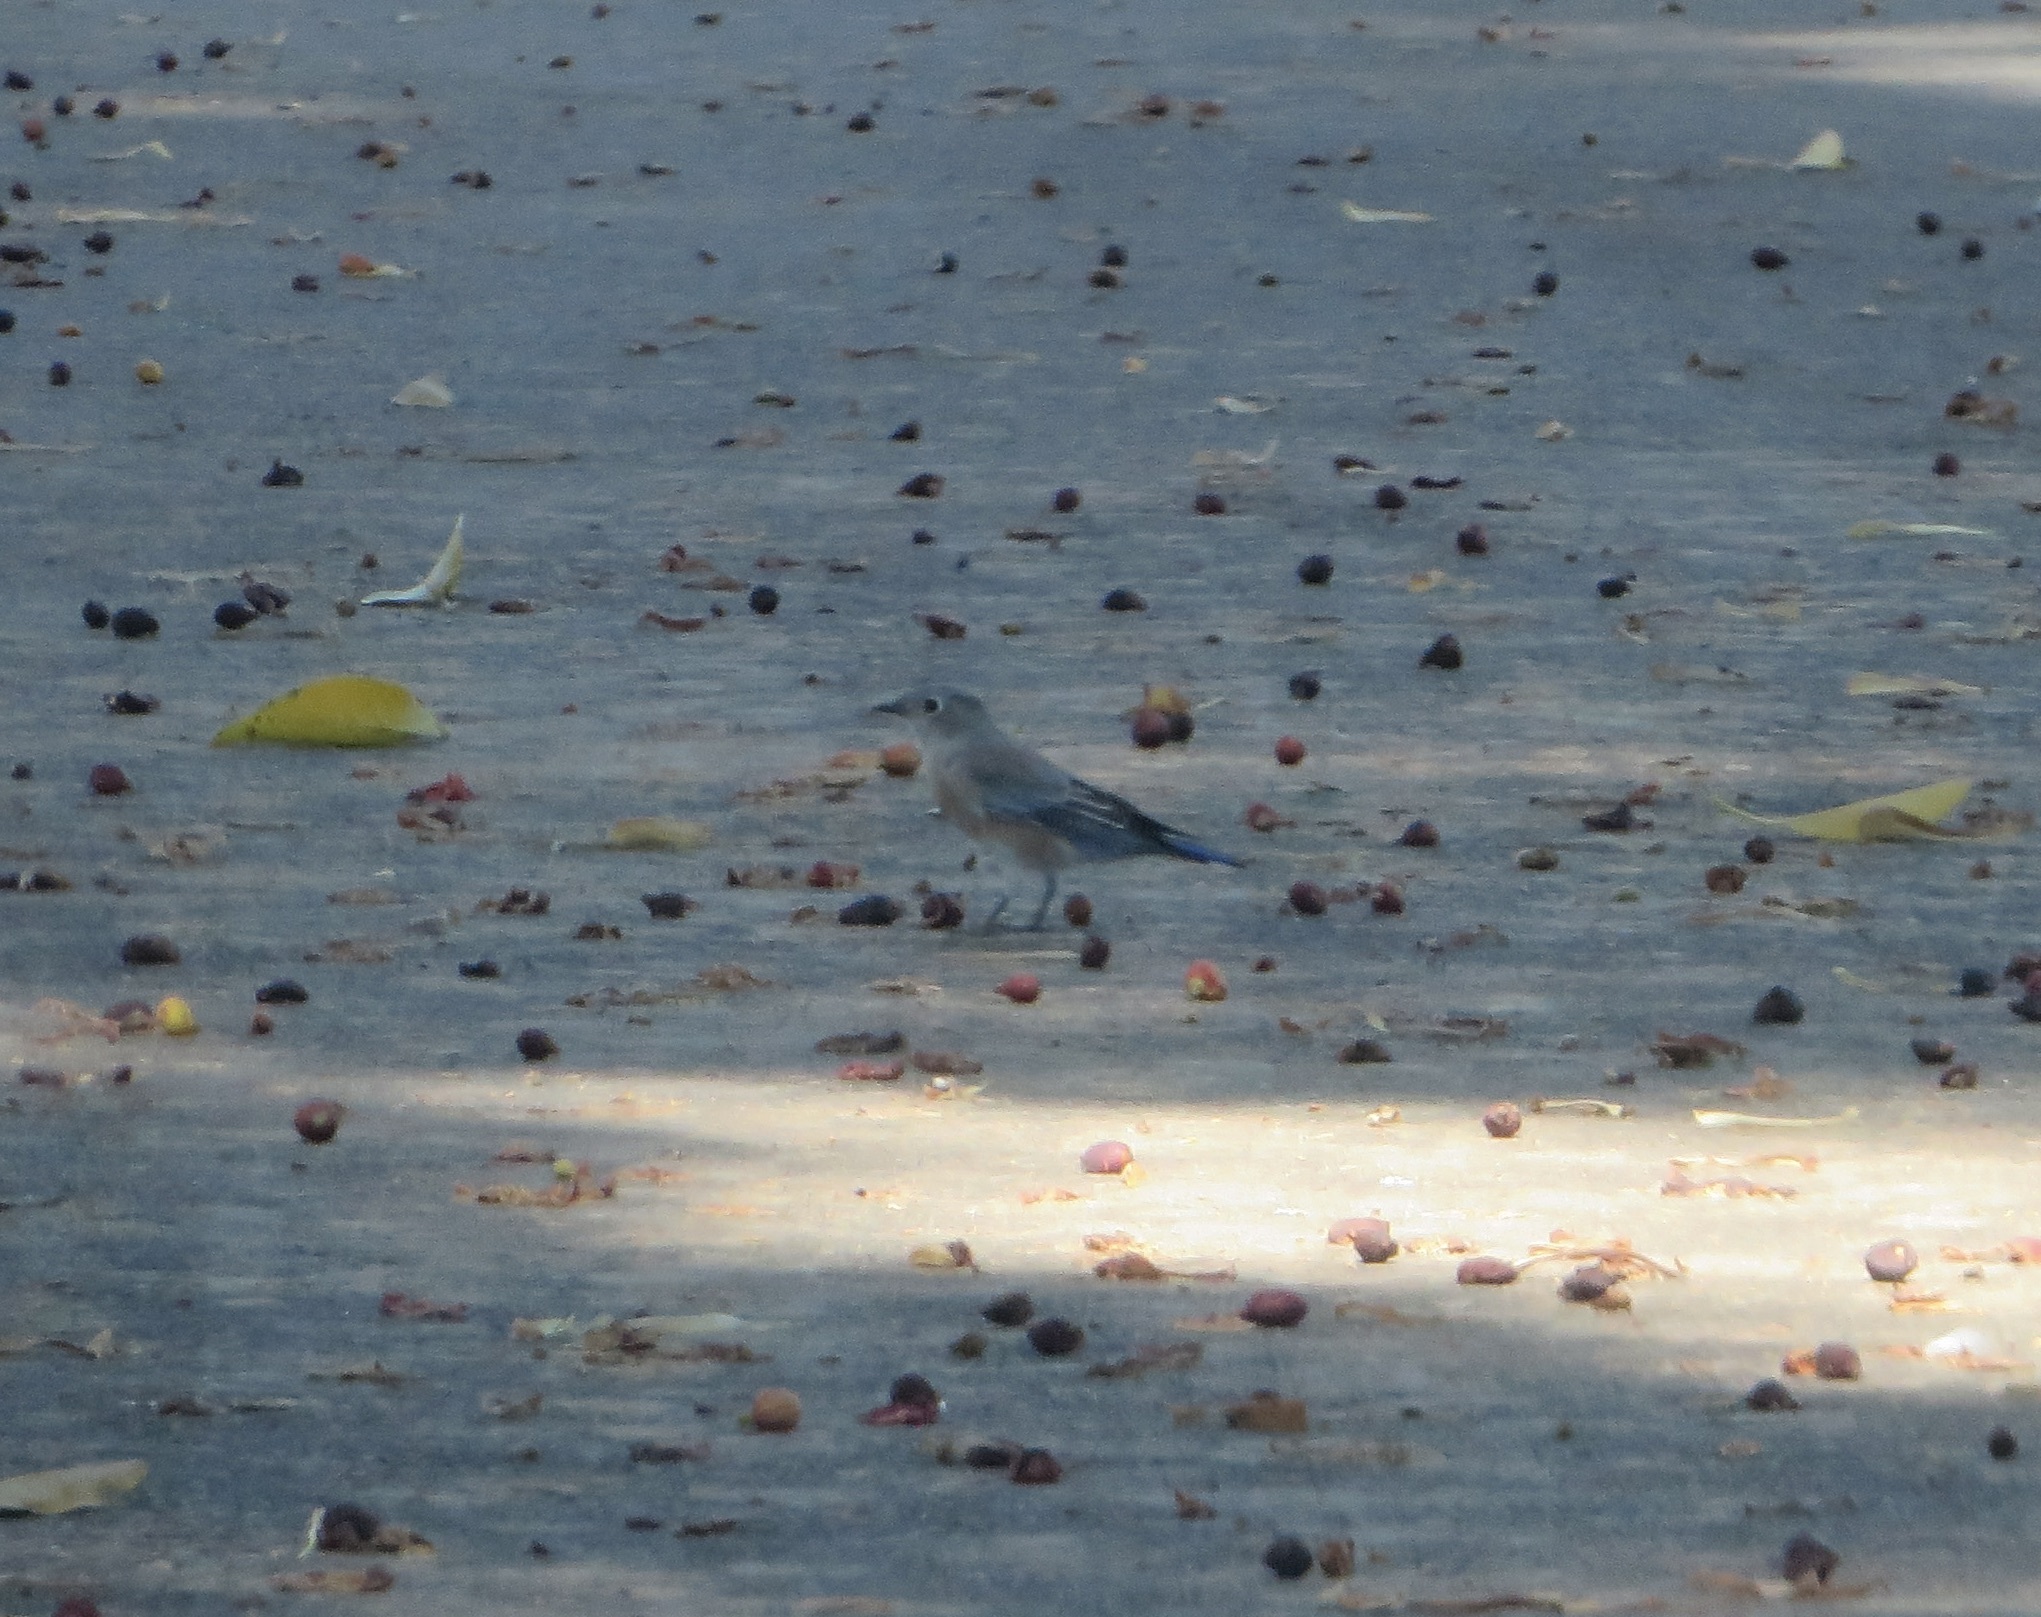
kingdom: Animalia
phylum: Chordata
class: Aves
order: Passeriformes
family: Turdidae
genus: Sialia
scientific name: Sialia mexicana
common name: Western bluebird
